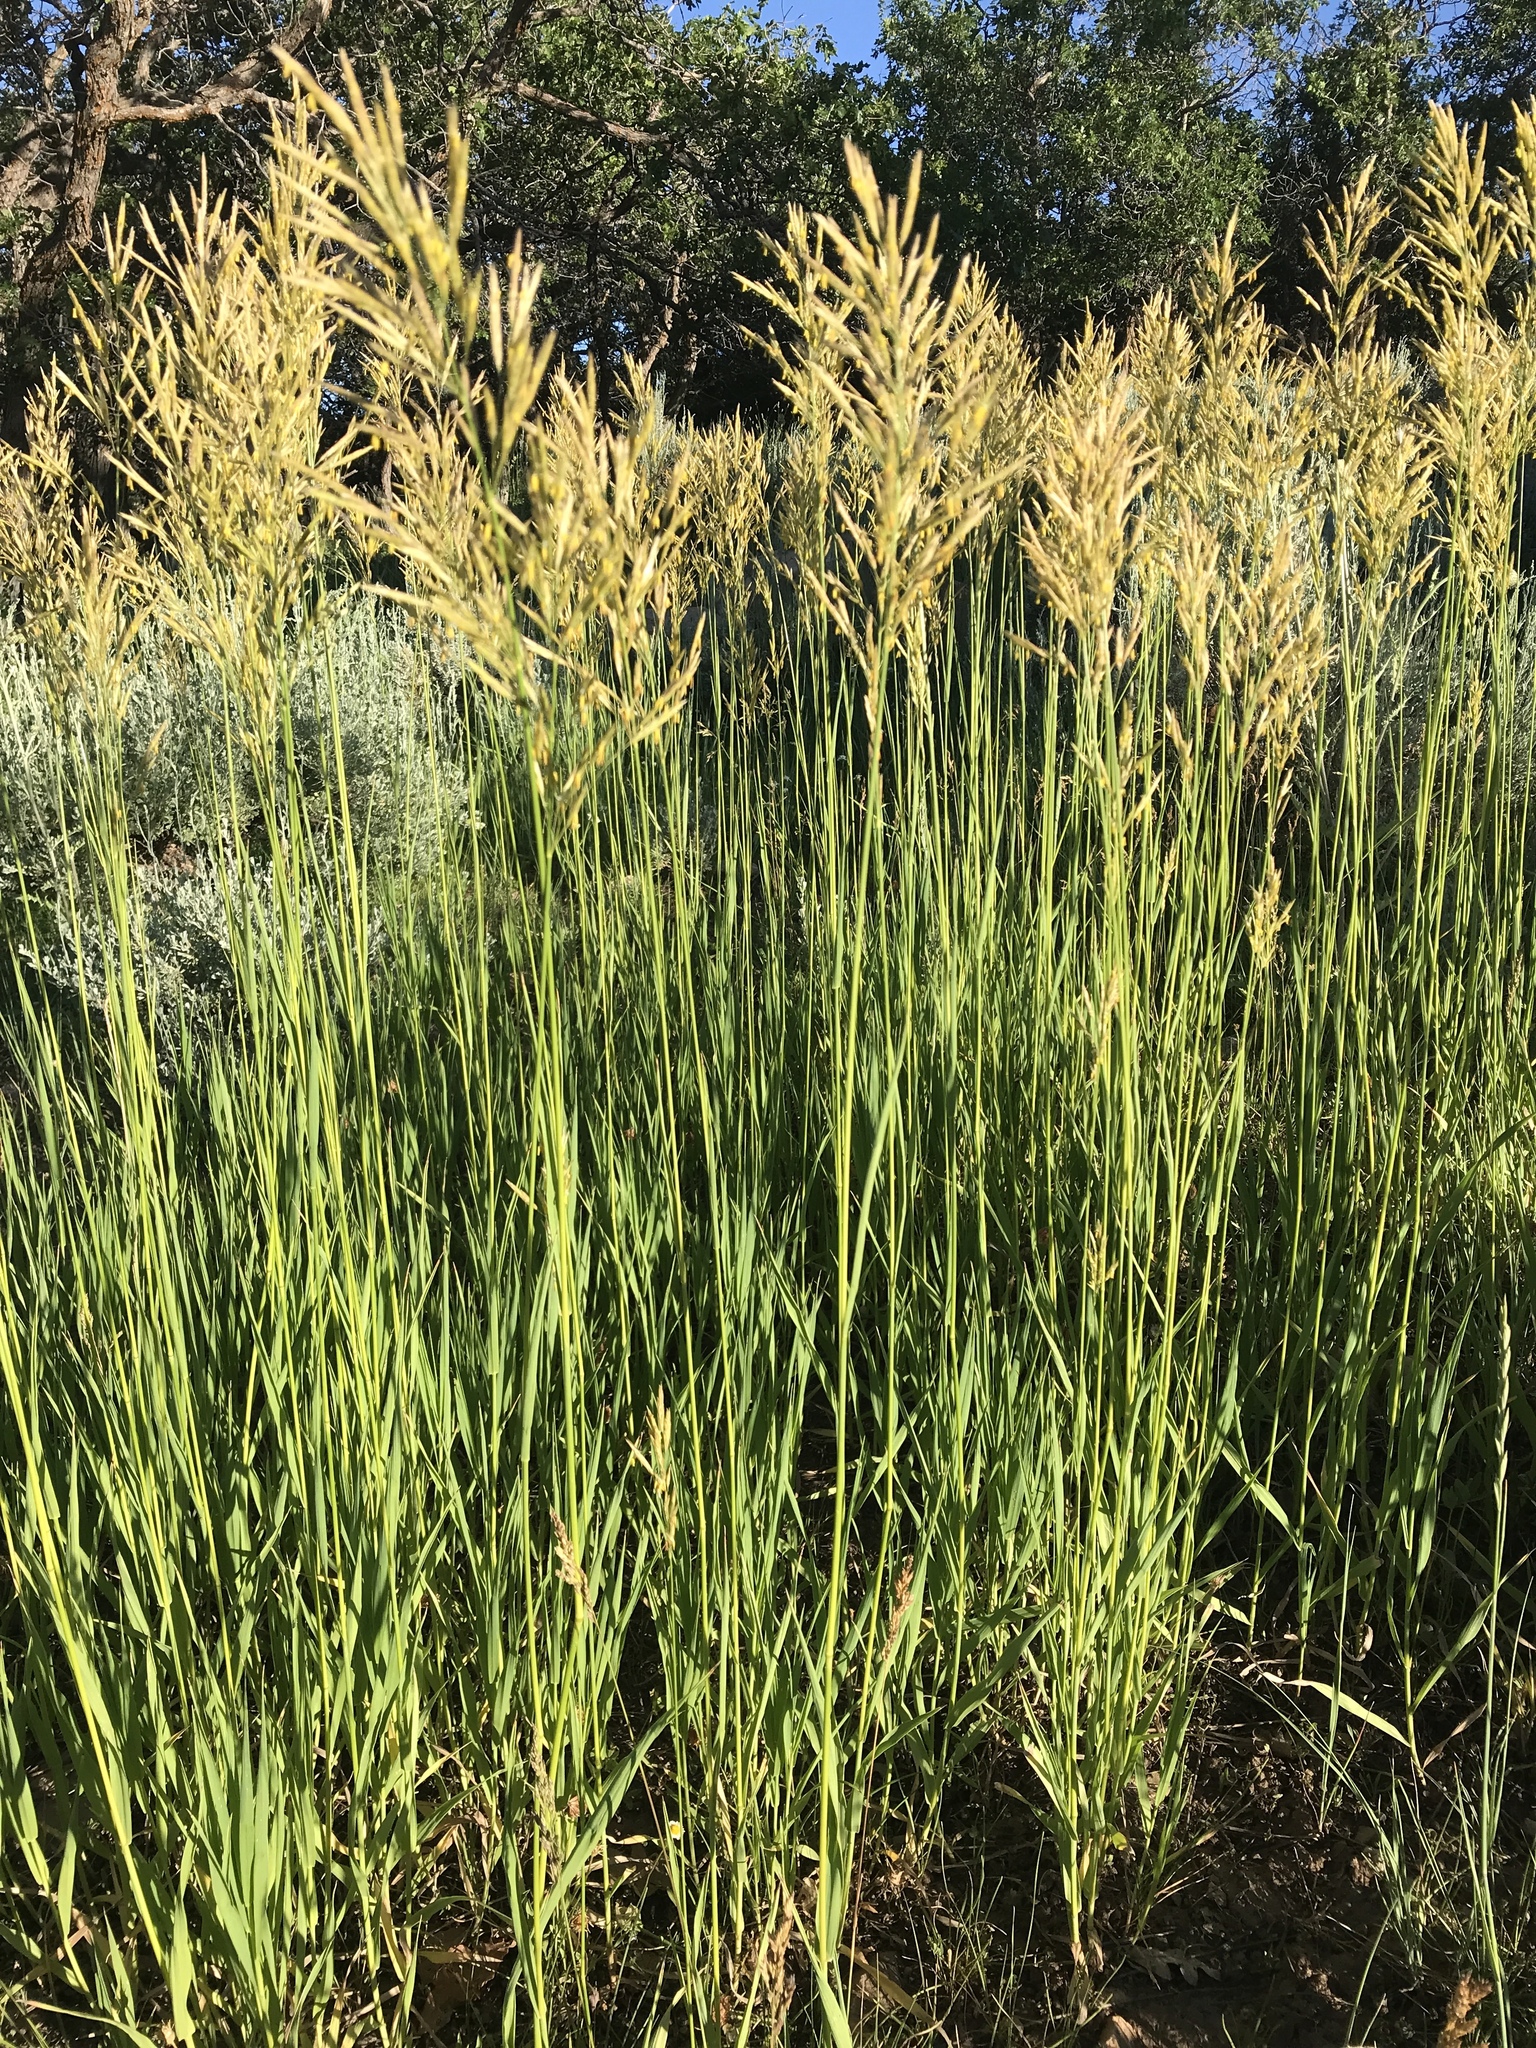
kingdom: Plantae
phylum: Tracheophyta
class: Liliopsida
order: Poales
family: Poaceae
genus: Bromus
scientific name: Bromus inermis
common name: Smooth brome
